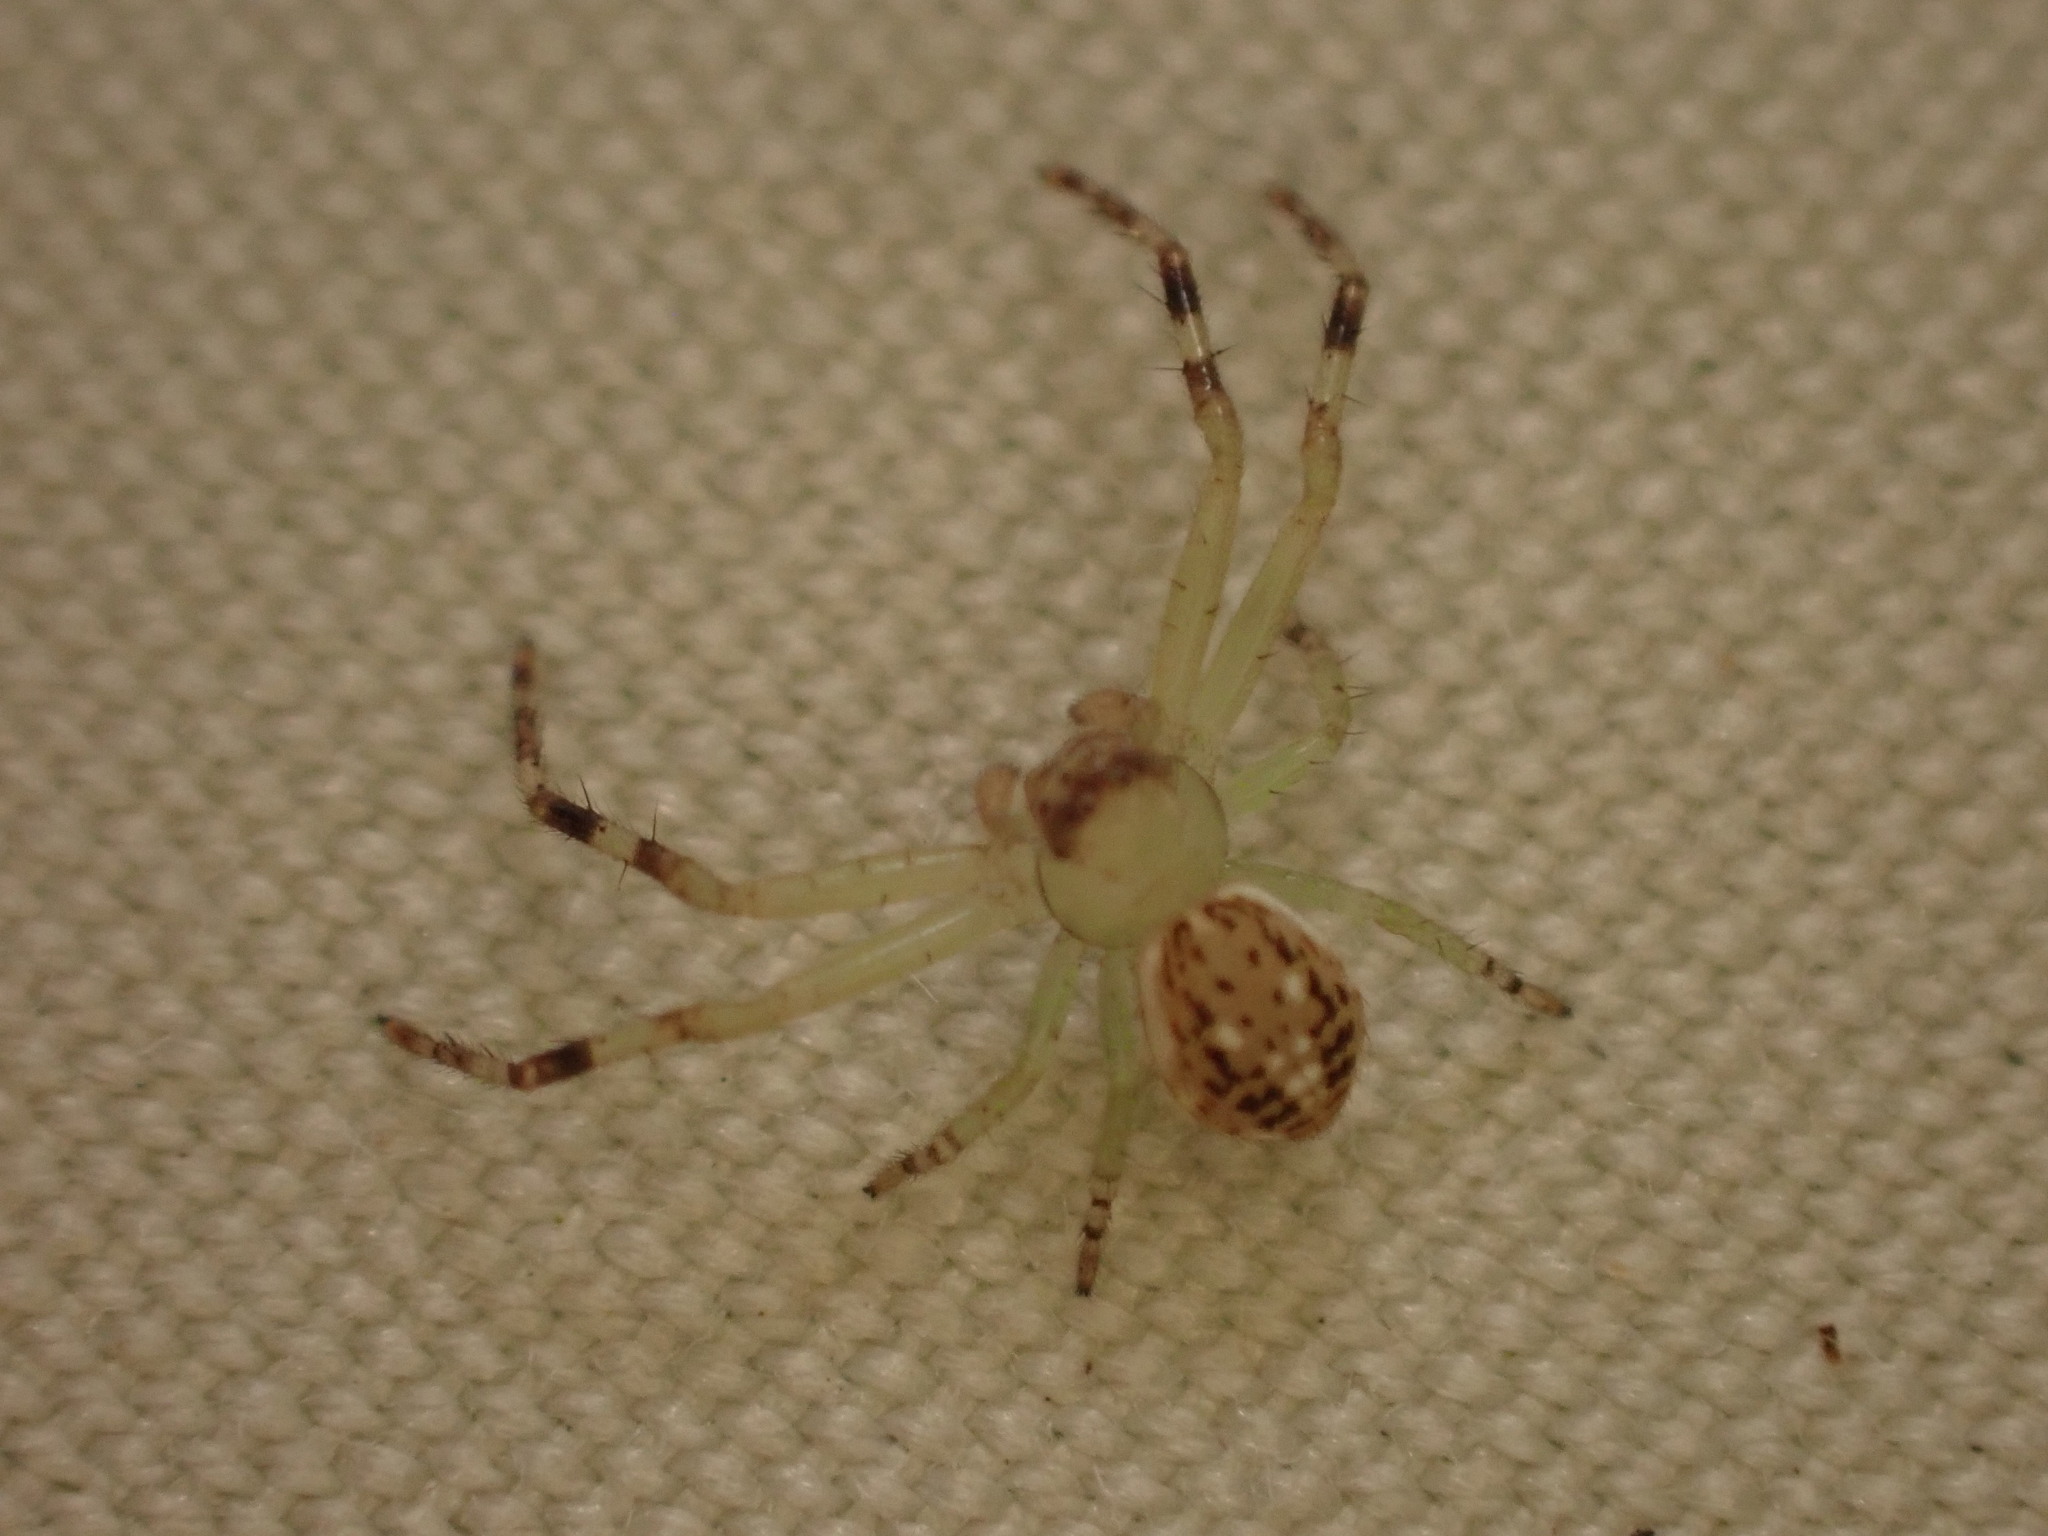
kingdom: Animalia
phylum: Arthropoda
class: Arachnida
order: Araneae
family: Thomisidae
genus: Diaea
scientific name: Diaea ambara
